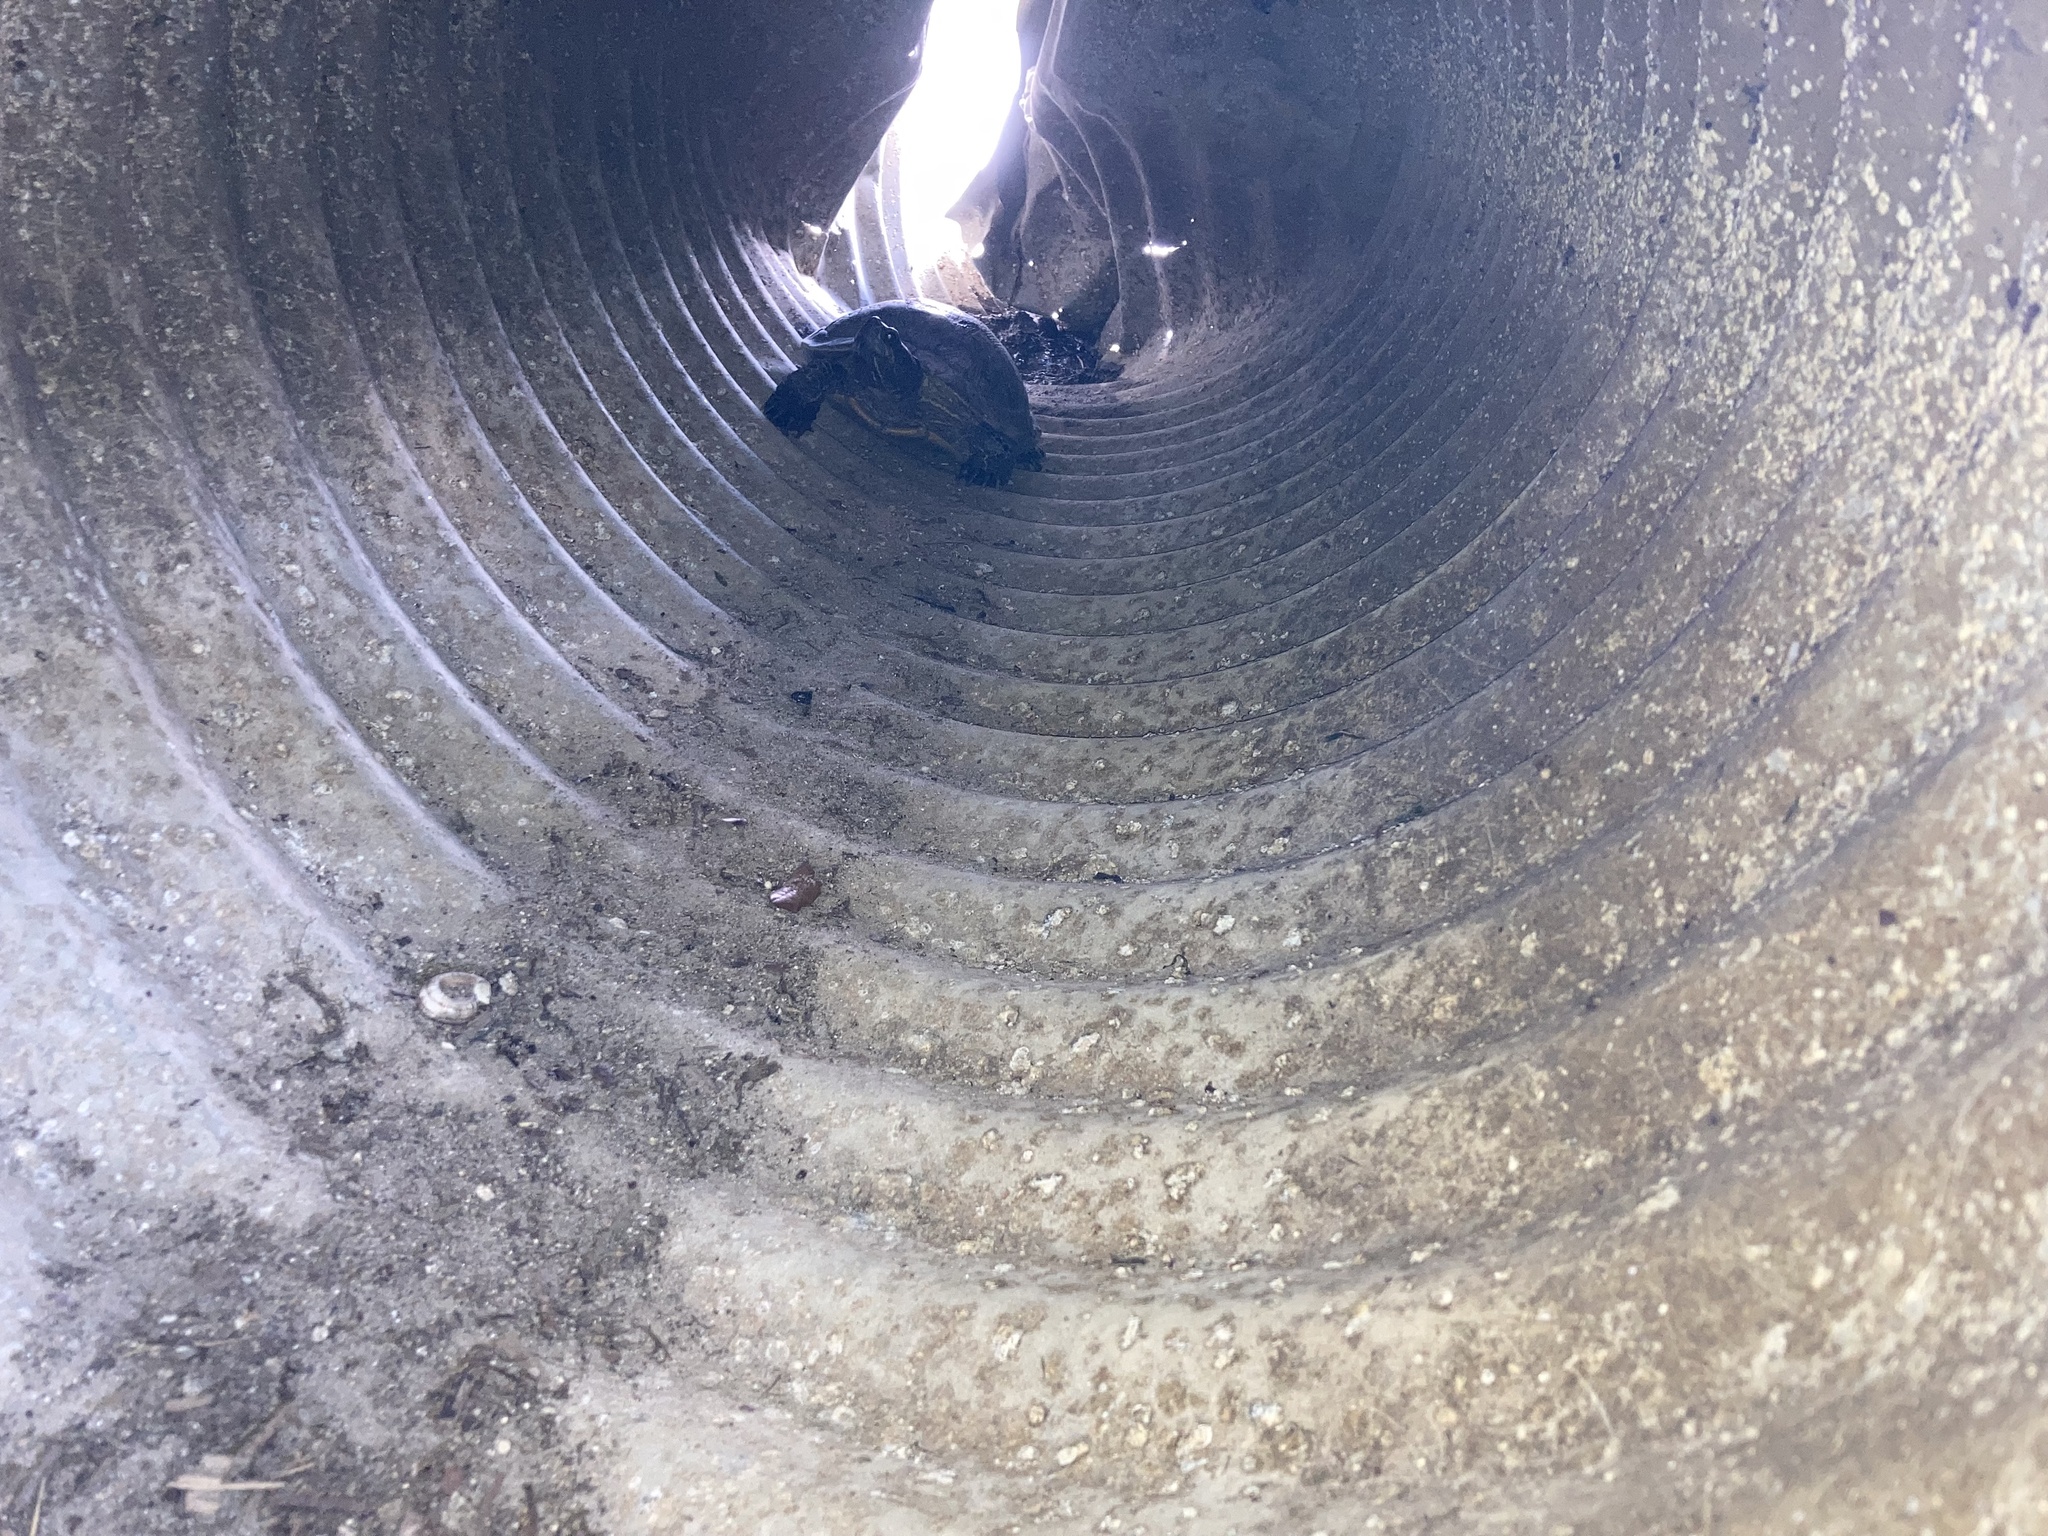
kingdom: Animalia
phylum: Chordata
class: Testudines
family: Emydidae
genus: Trachemys
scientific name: Trachemys scripta
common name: Slider
